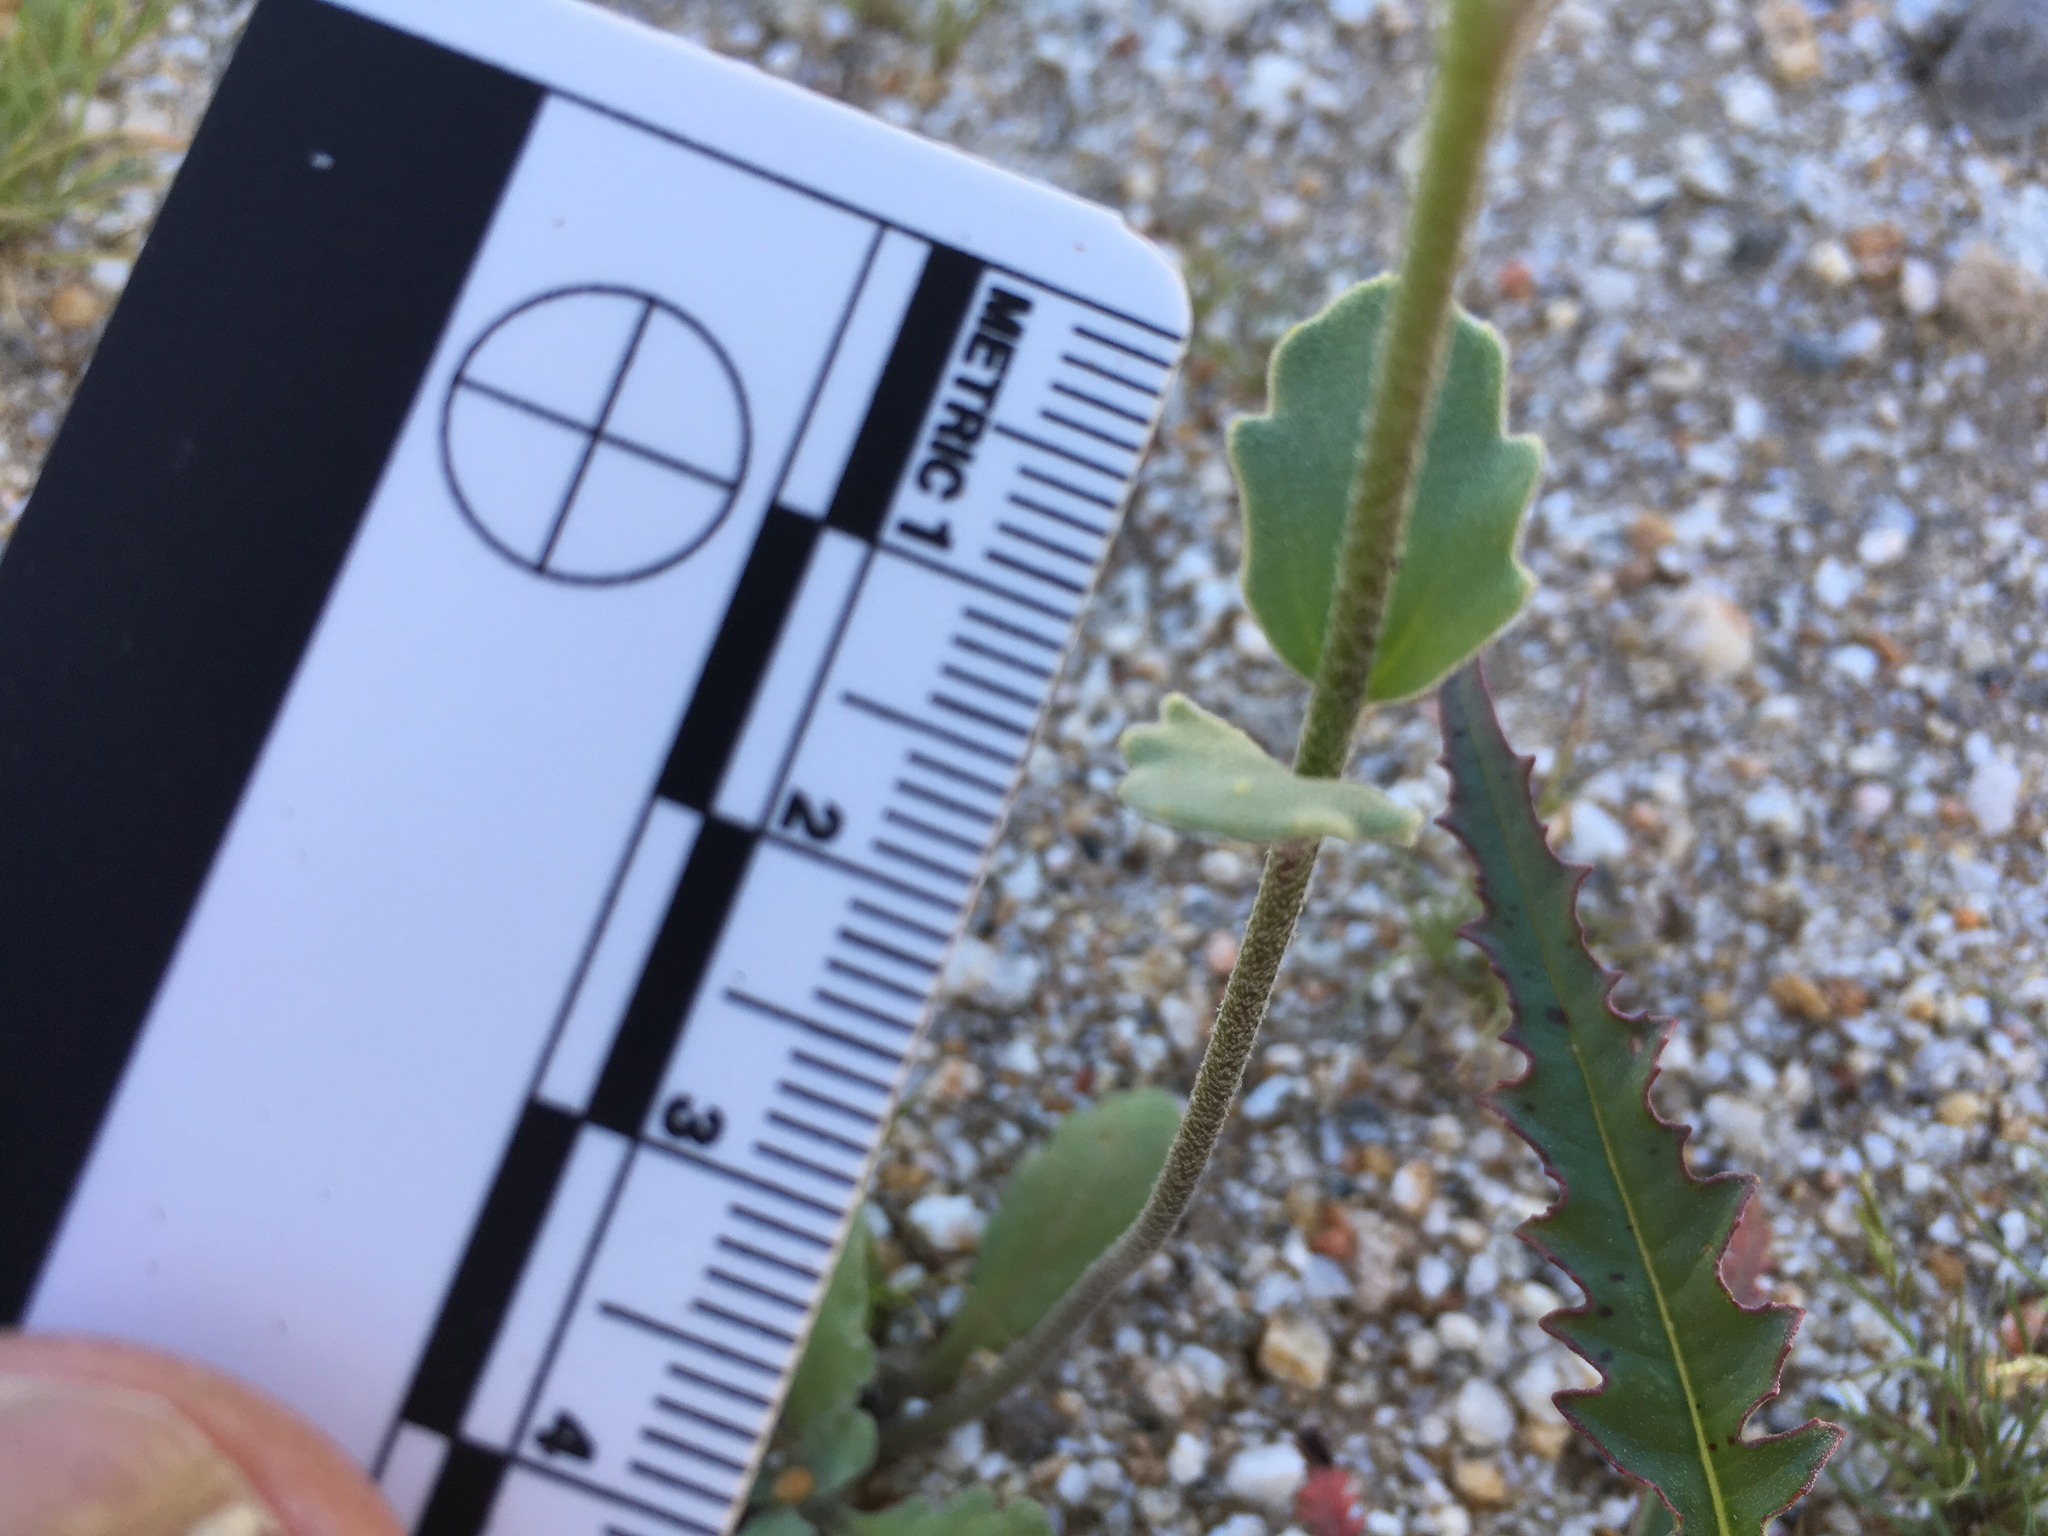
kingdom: Plantae
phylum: Tracheophyta
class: Magnoliopsida
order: Brassicales
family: Brassicaceae
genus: Dithyrea
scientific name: Dithyrea californica
